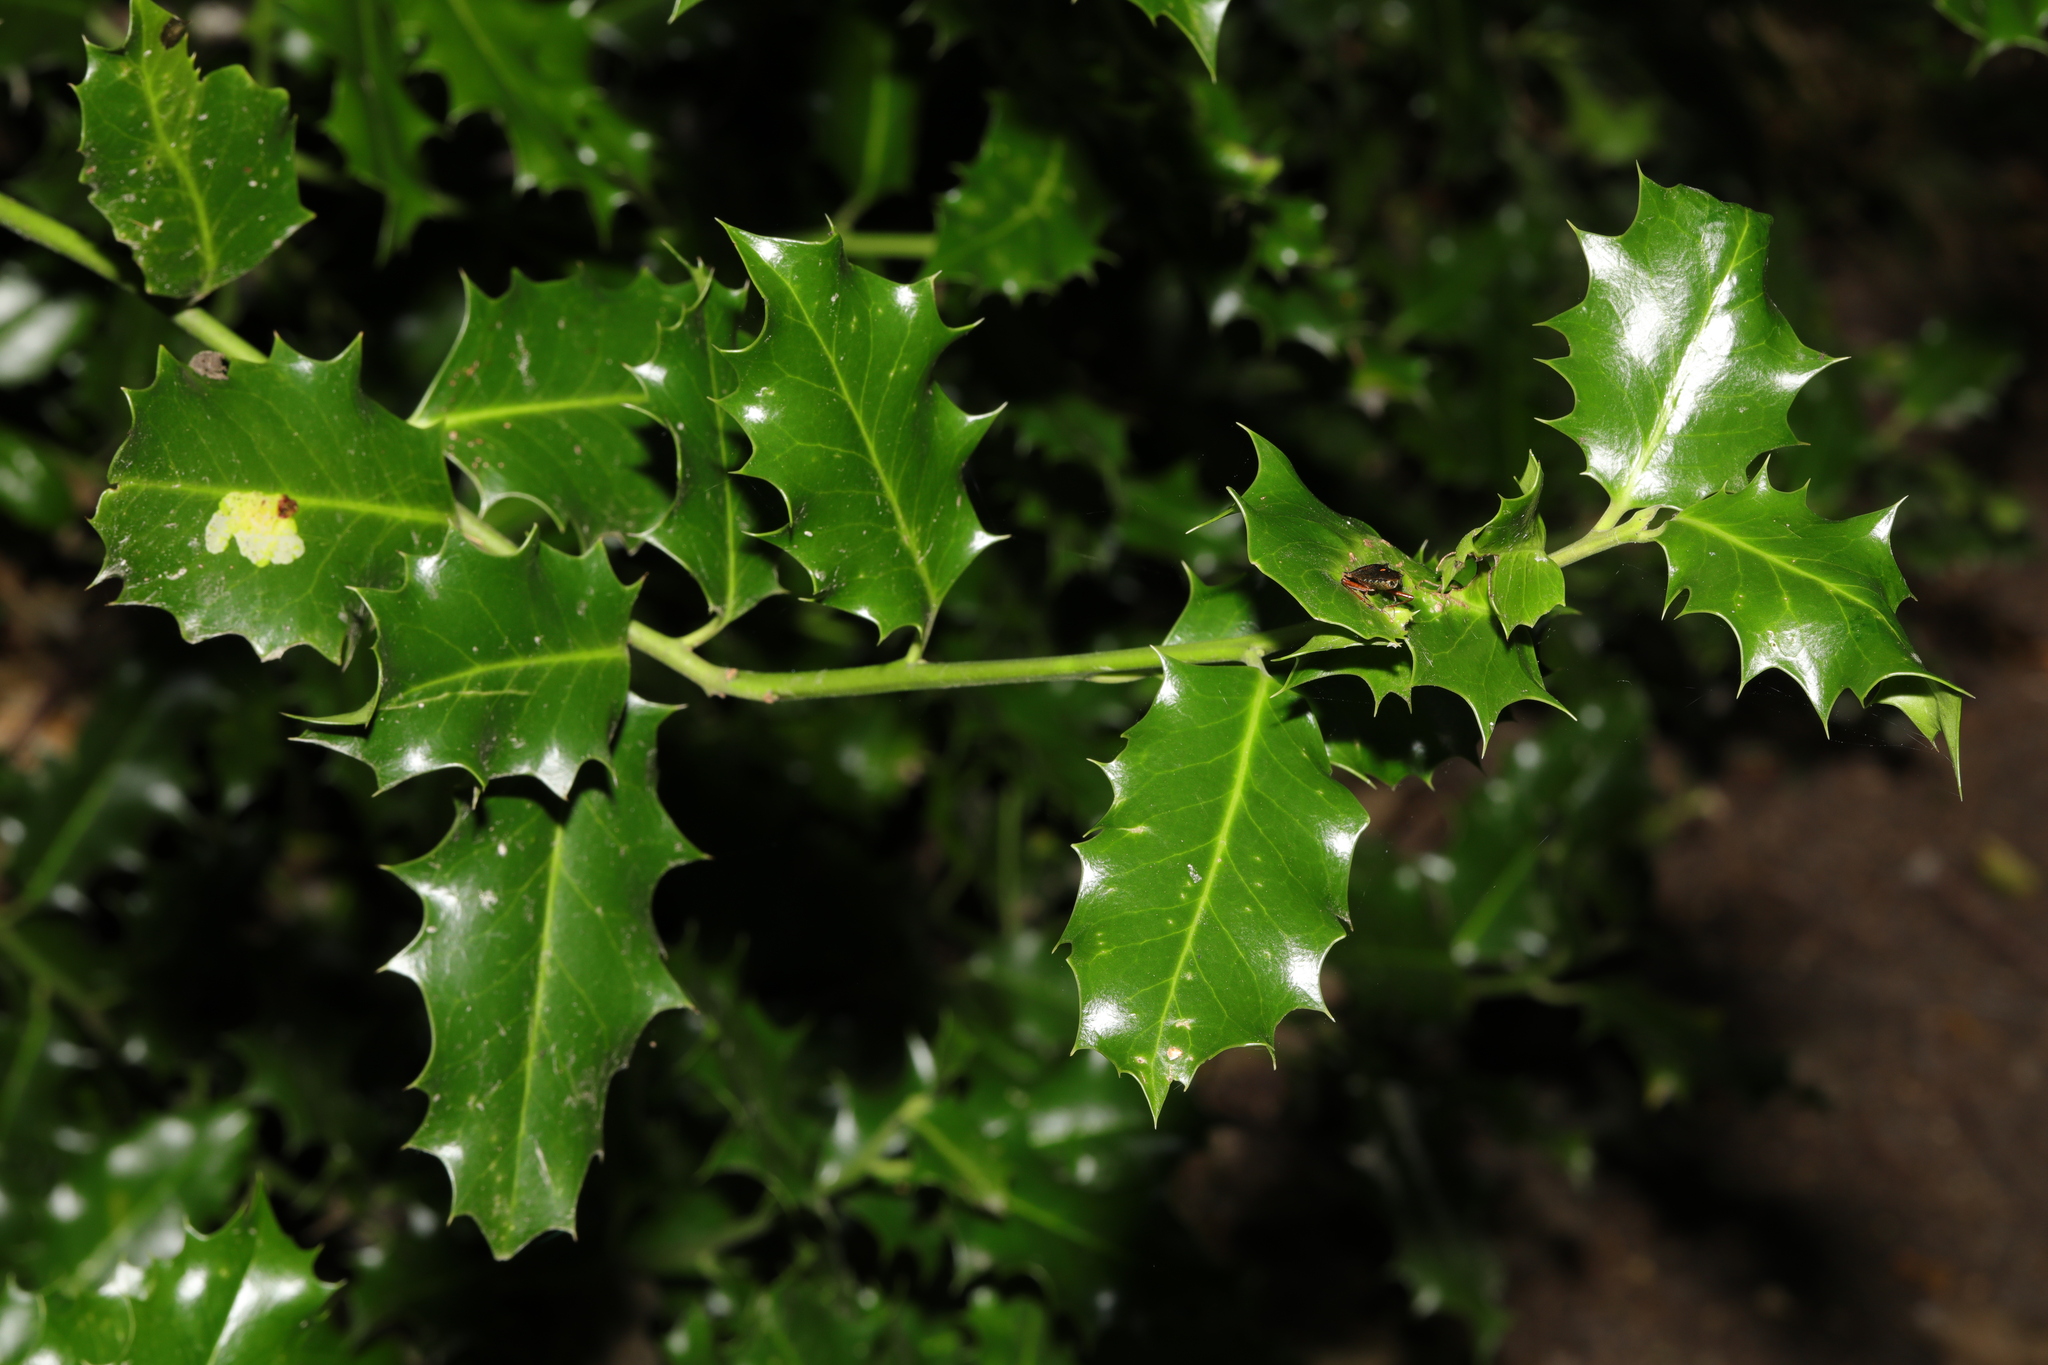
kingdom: Plantae
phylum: Tracheophyta
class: Magnoliopsida
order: Aquifoliales
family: Aquifoliaceae
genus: Ilex
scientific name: Ilex aquifolium
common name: English holly
